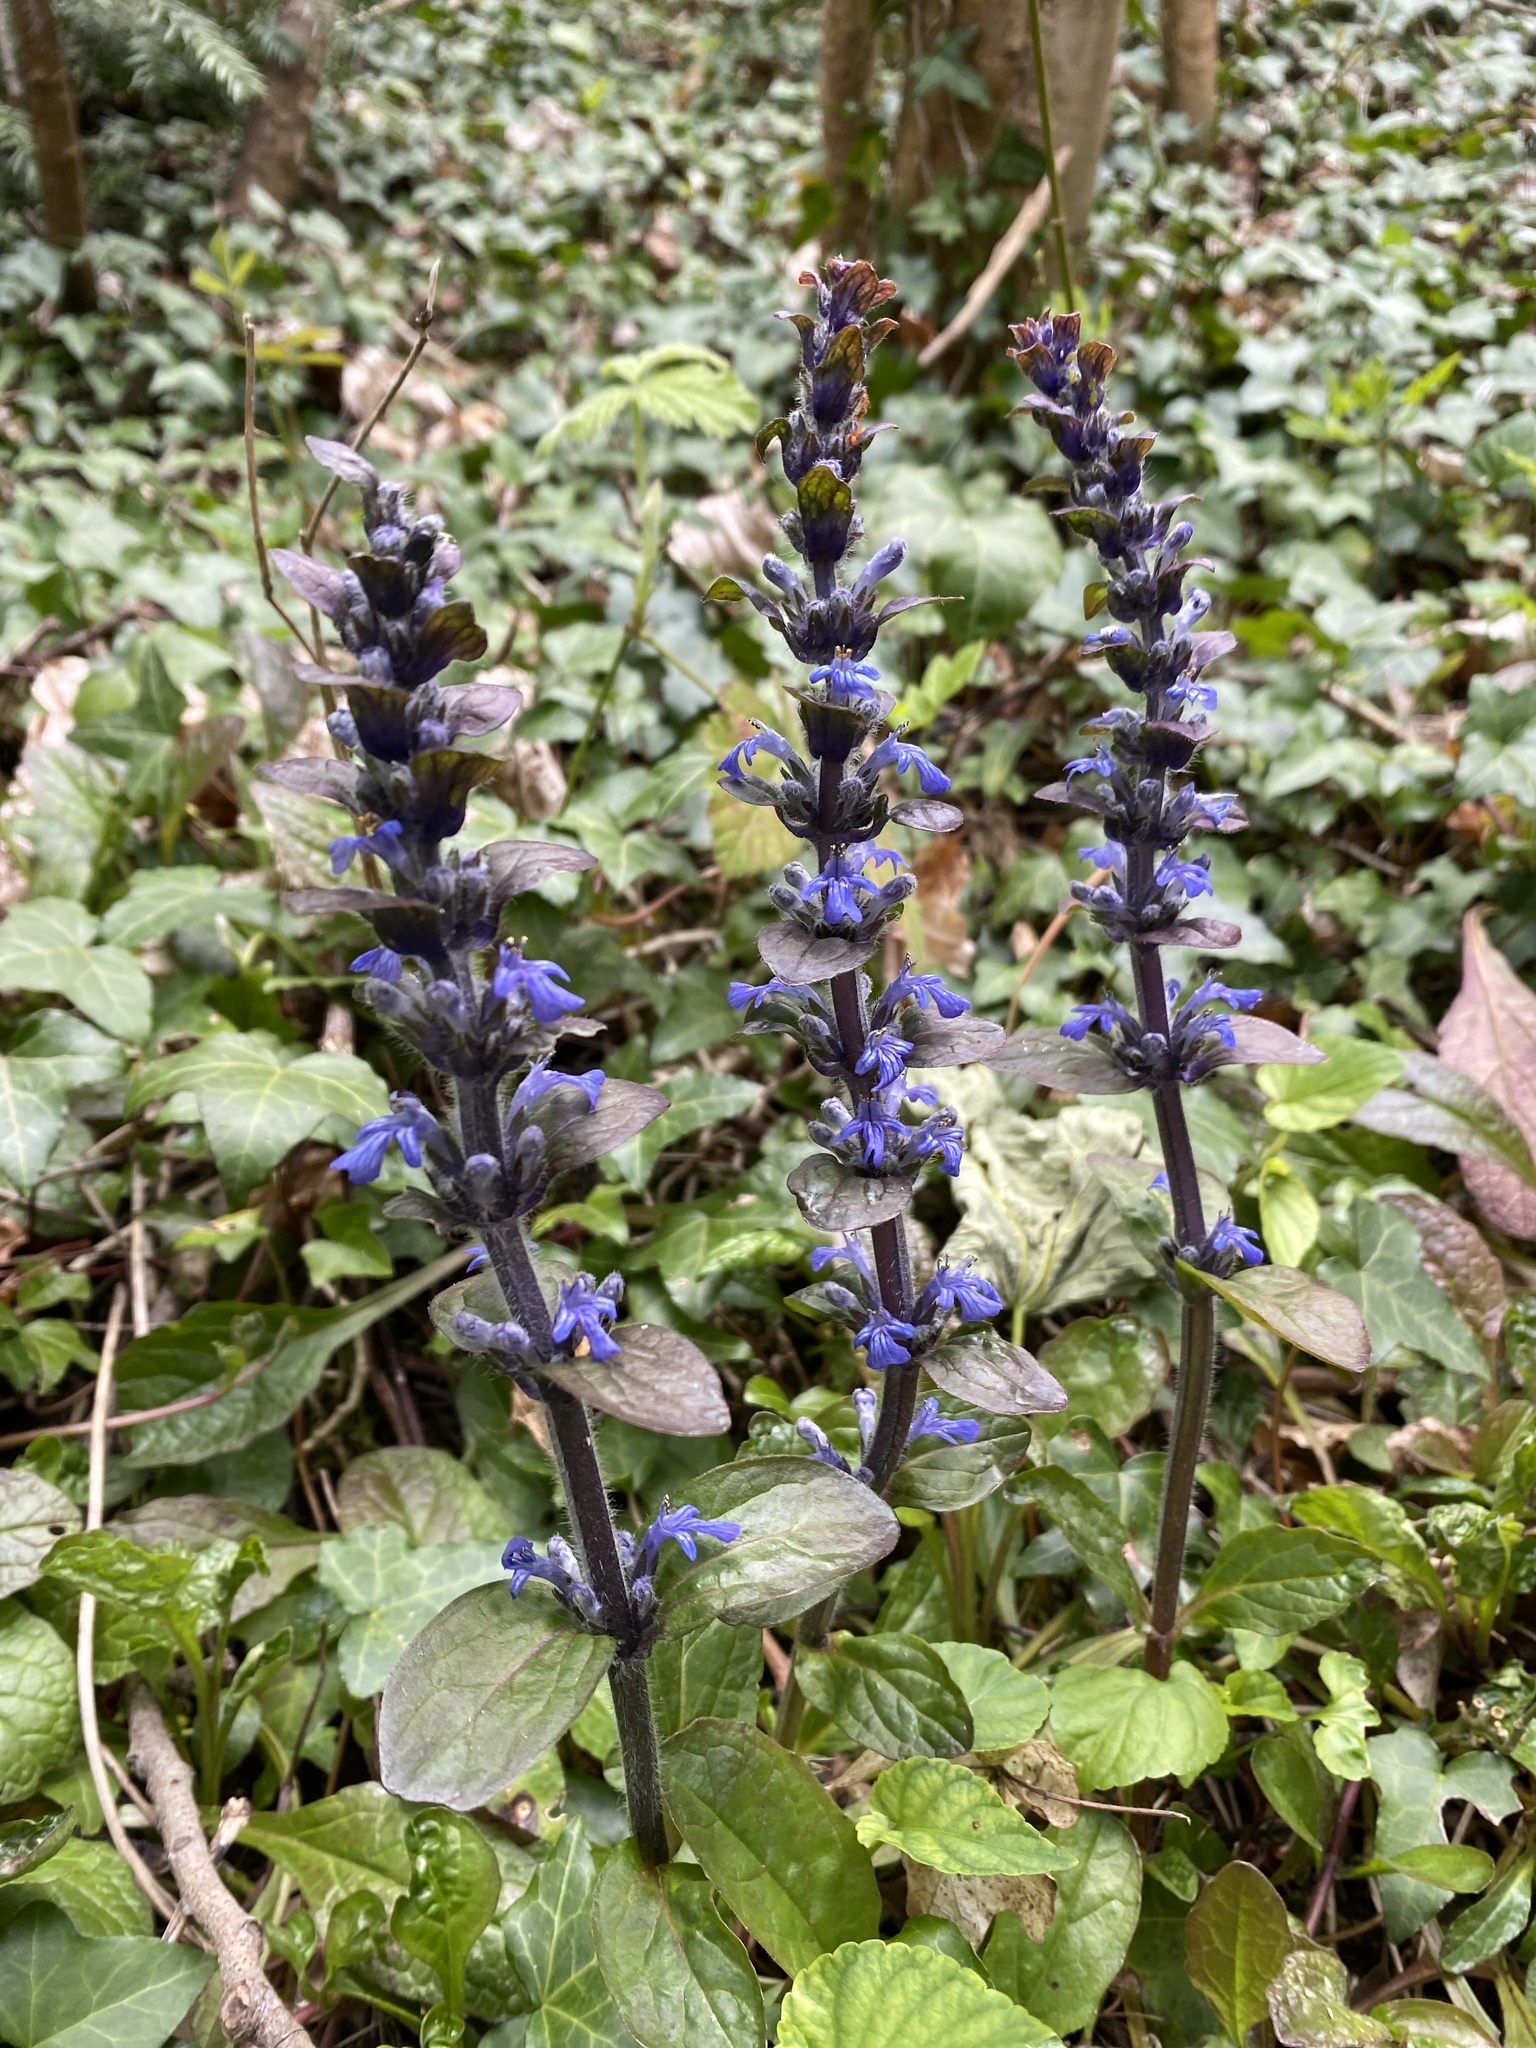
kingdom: Plantae
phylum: Tracheophyta
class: Magnoliopsida
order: Lamiales
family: Lamiaceae
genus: Ajuga
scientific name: Ajuga reptans
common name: Bugle
